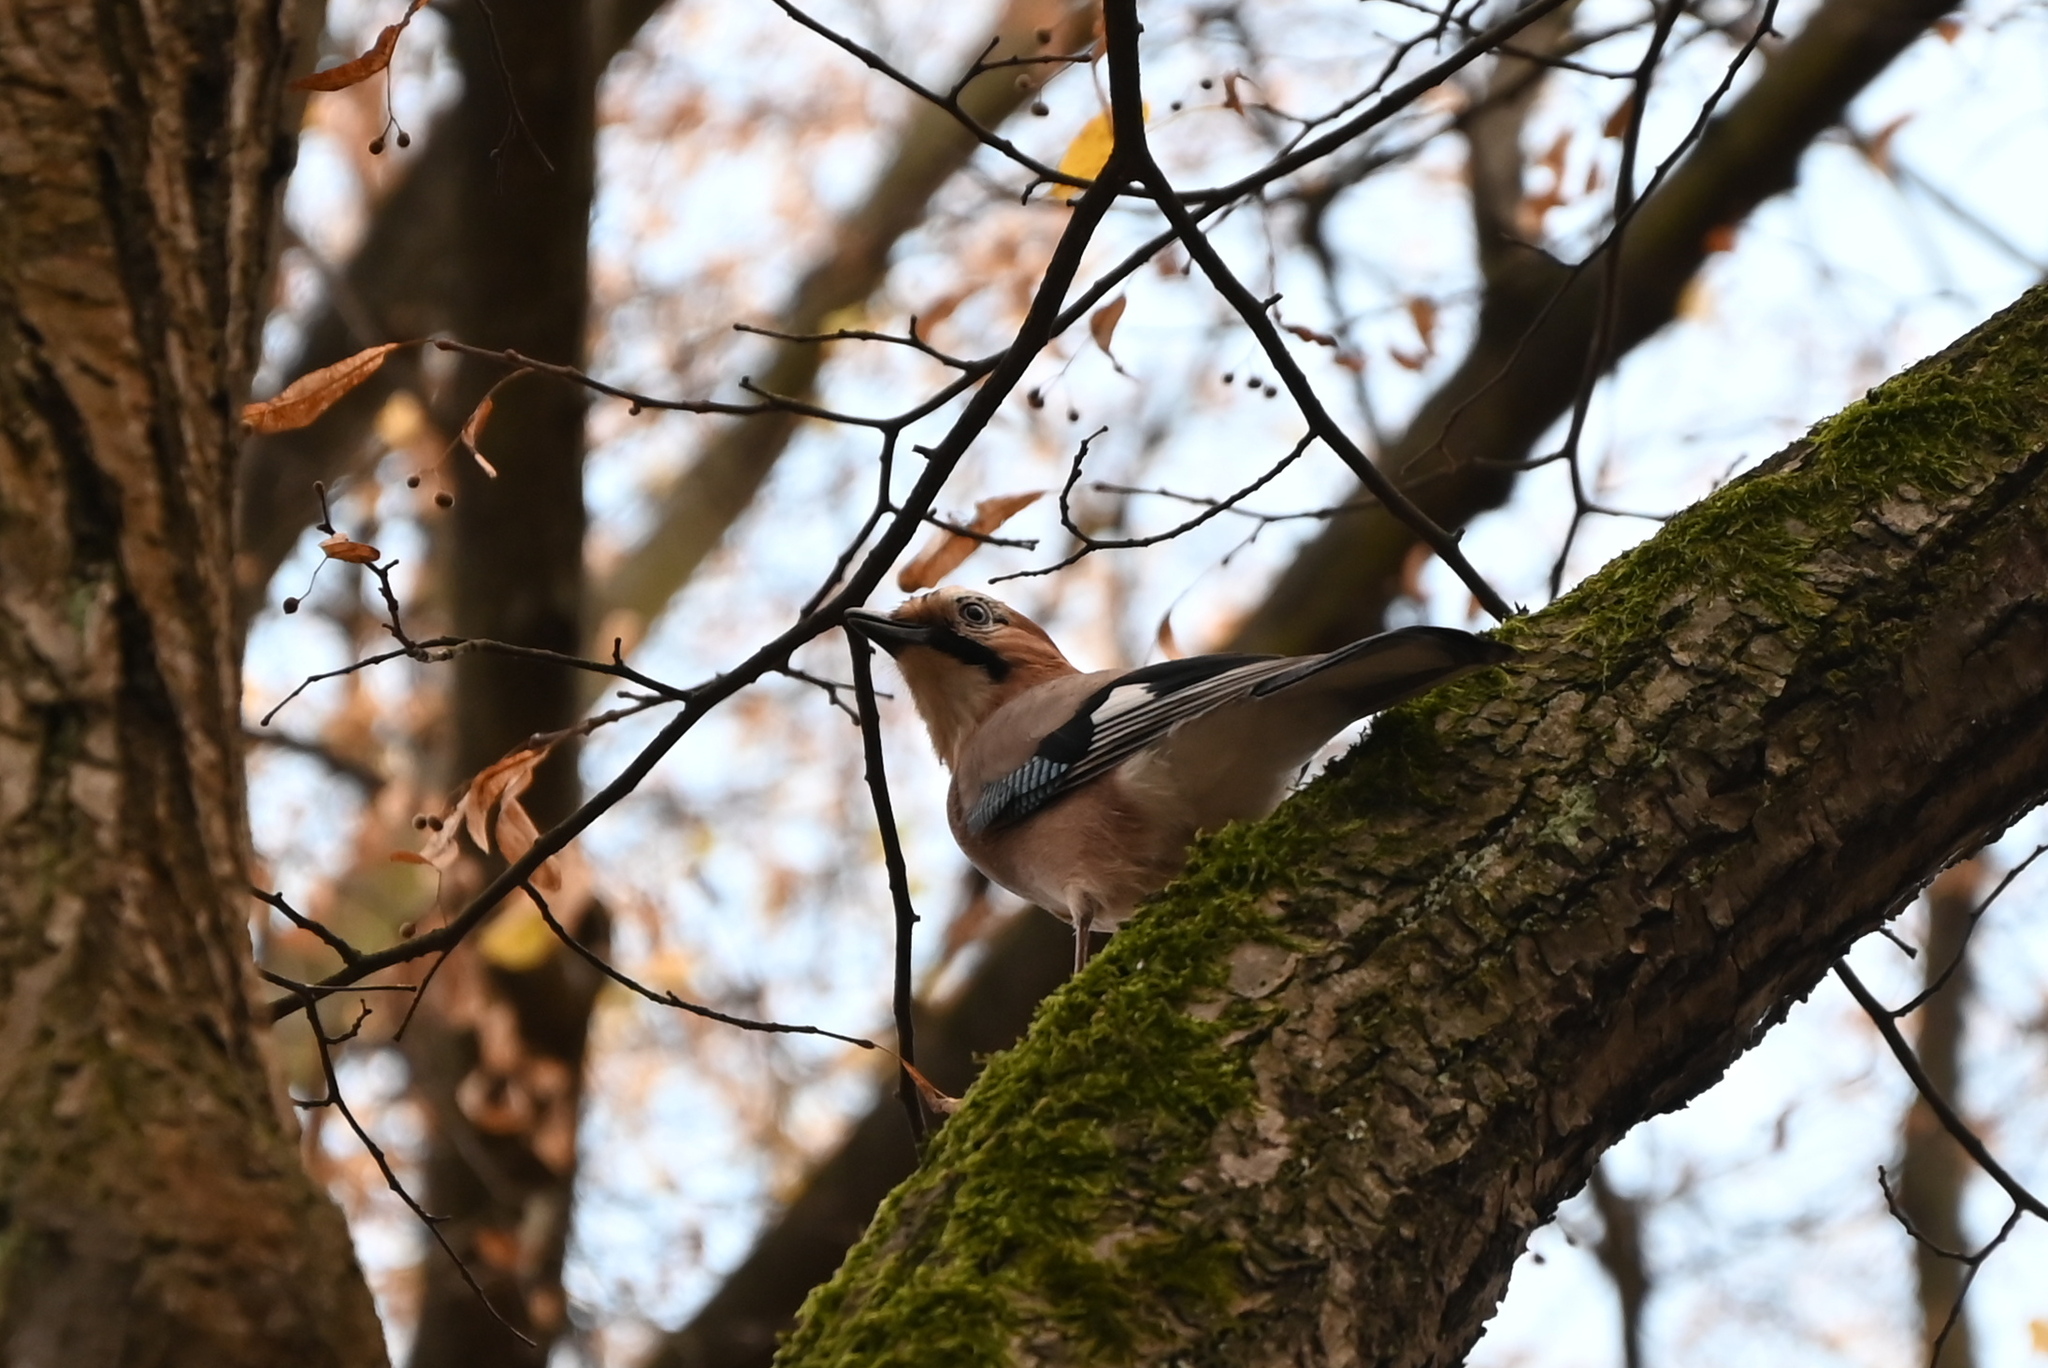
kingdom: Animalia
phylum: Chordata
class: Aves
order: Passeriformes
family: Corvidae
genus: Garrulus
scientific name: Garrulus glandarius
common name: Eurasian jay
